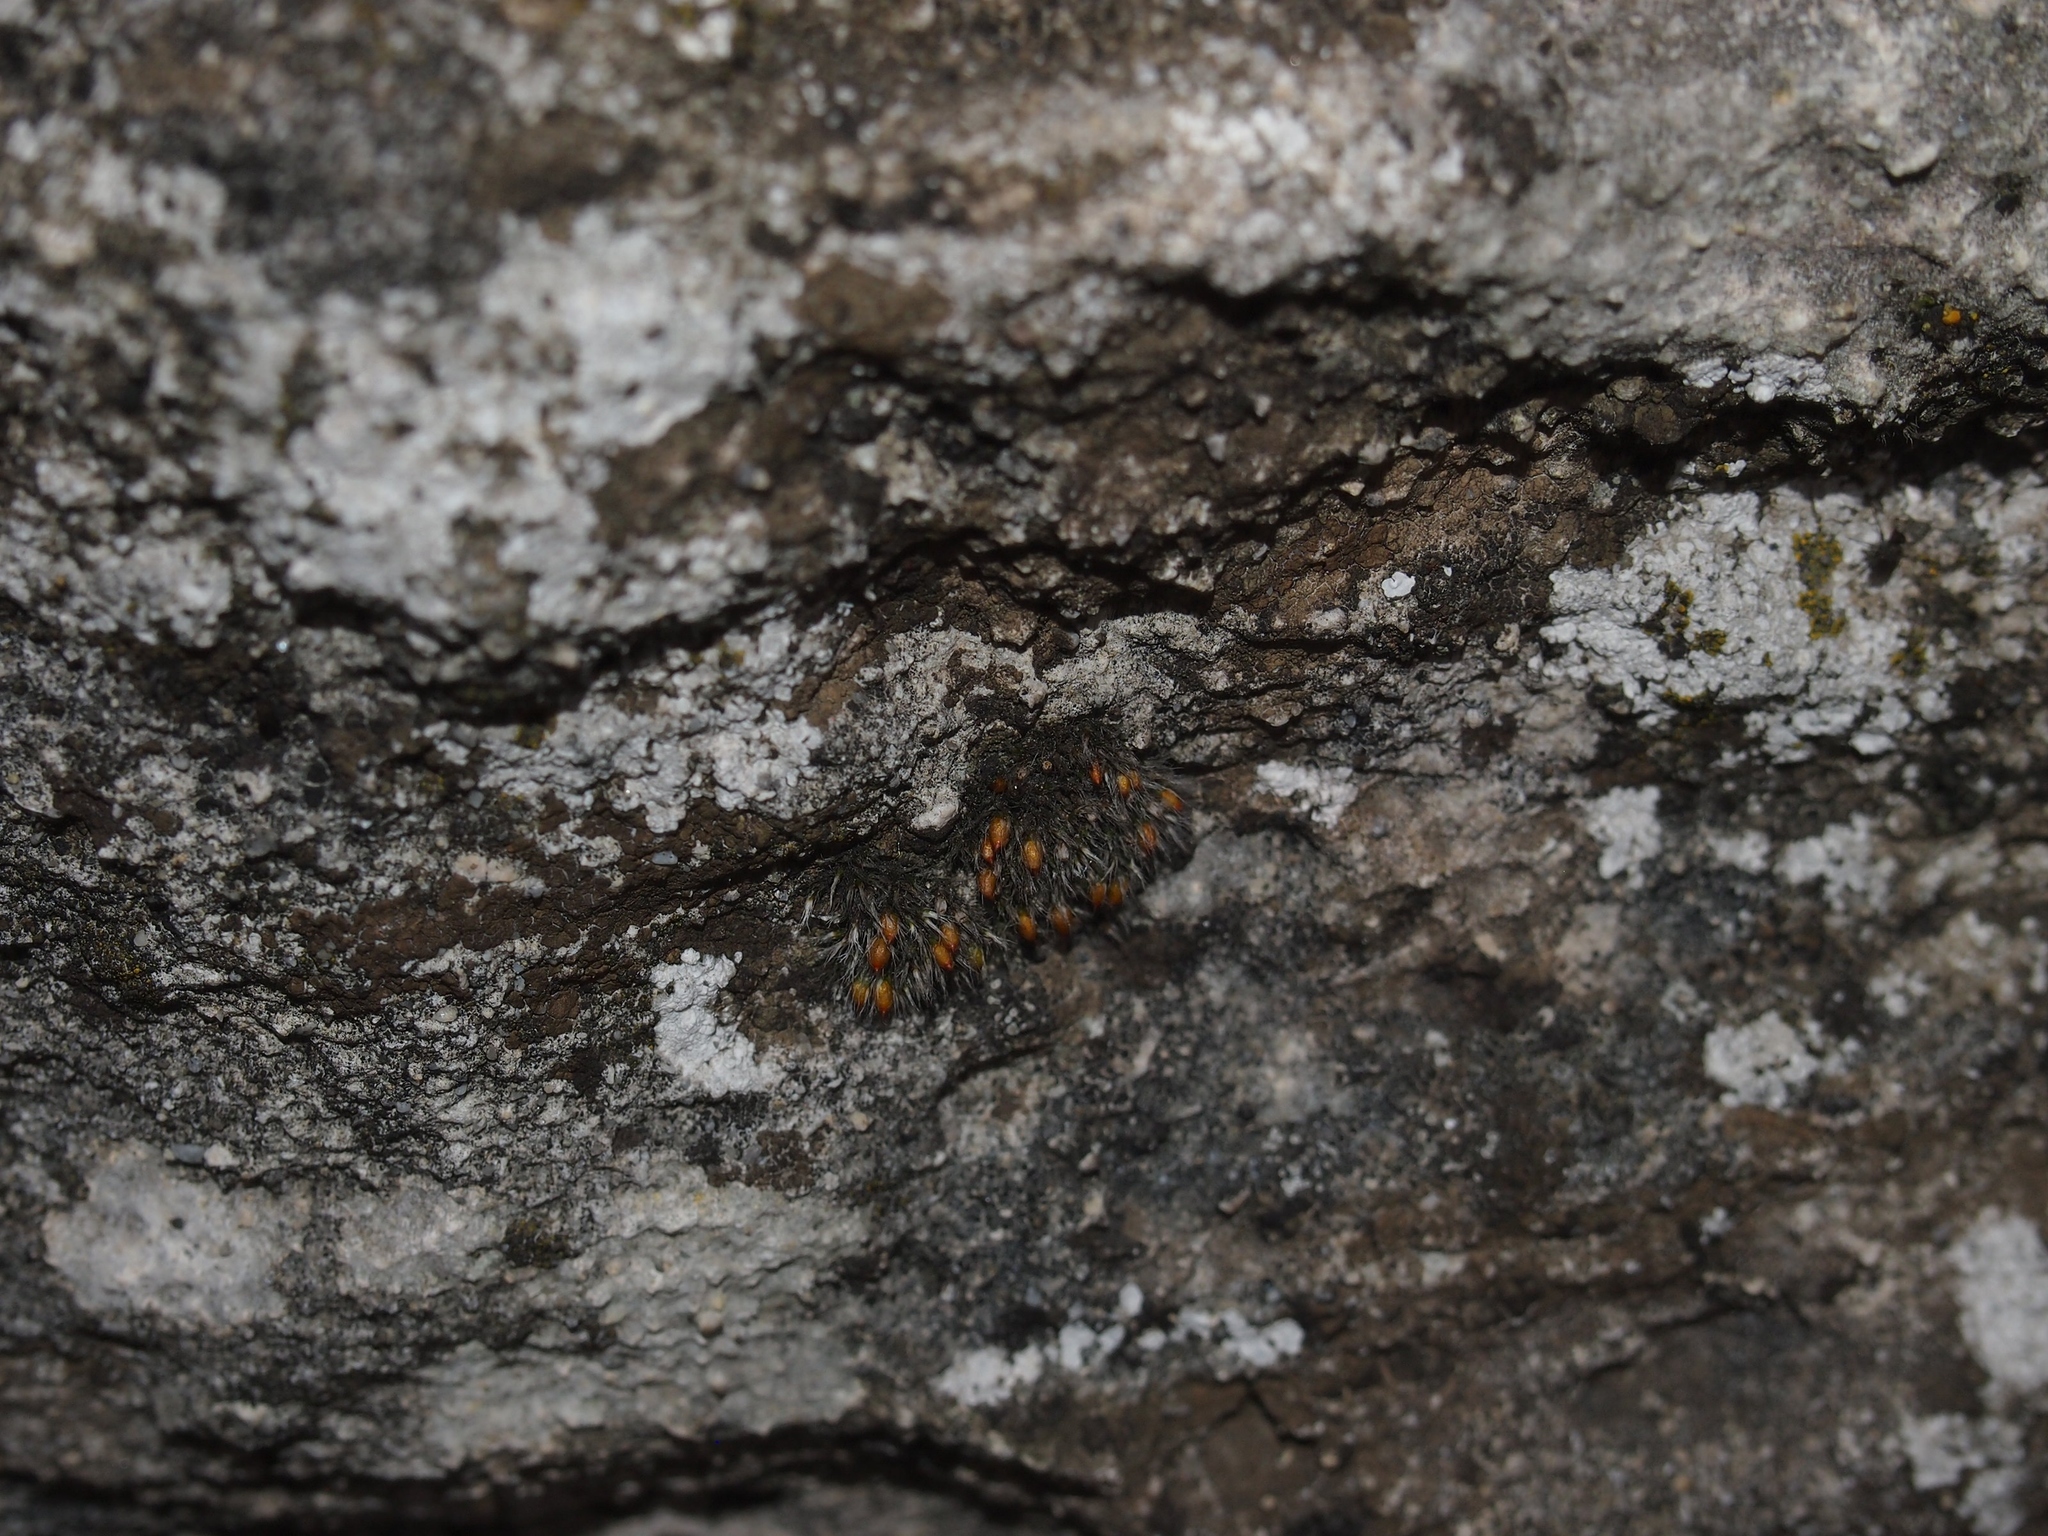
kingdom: Plantae
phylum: Bryophyta
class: Bryopsida
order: Grimmiales
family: Grimmiaceae
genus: Grimmia
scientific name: Grimmia crinita
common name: Hedgehog grimmia
